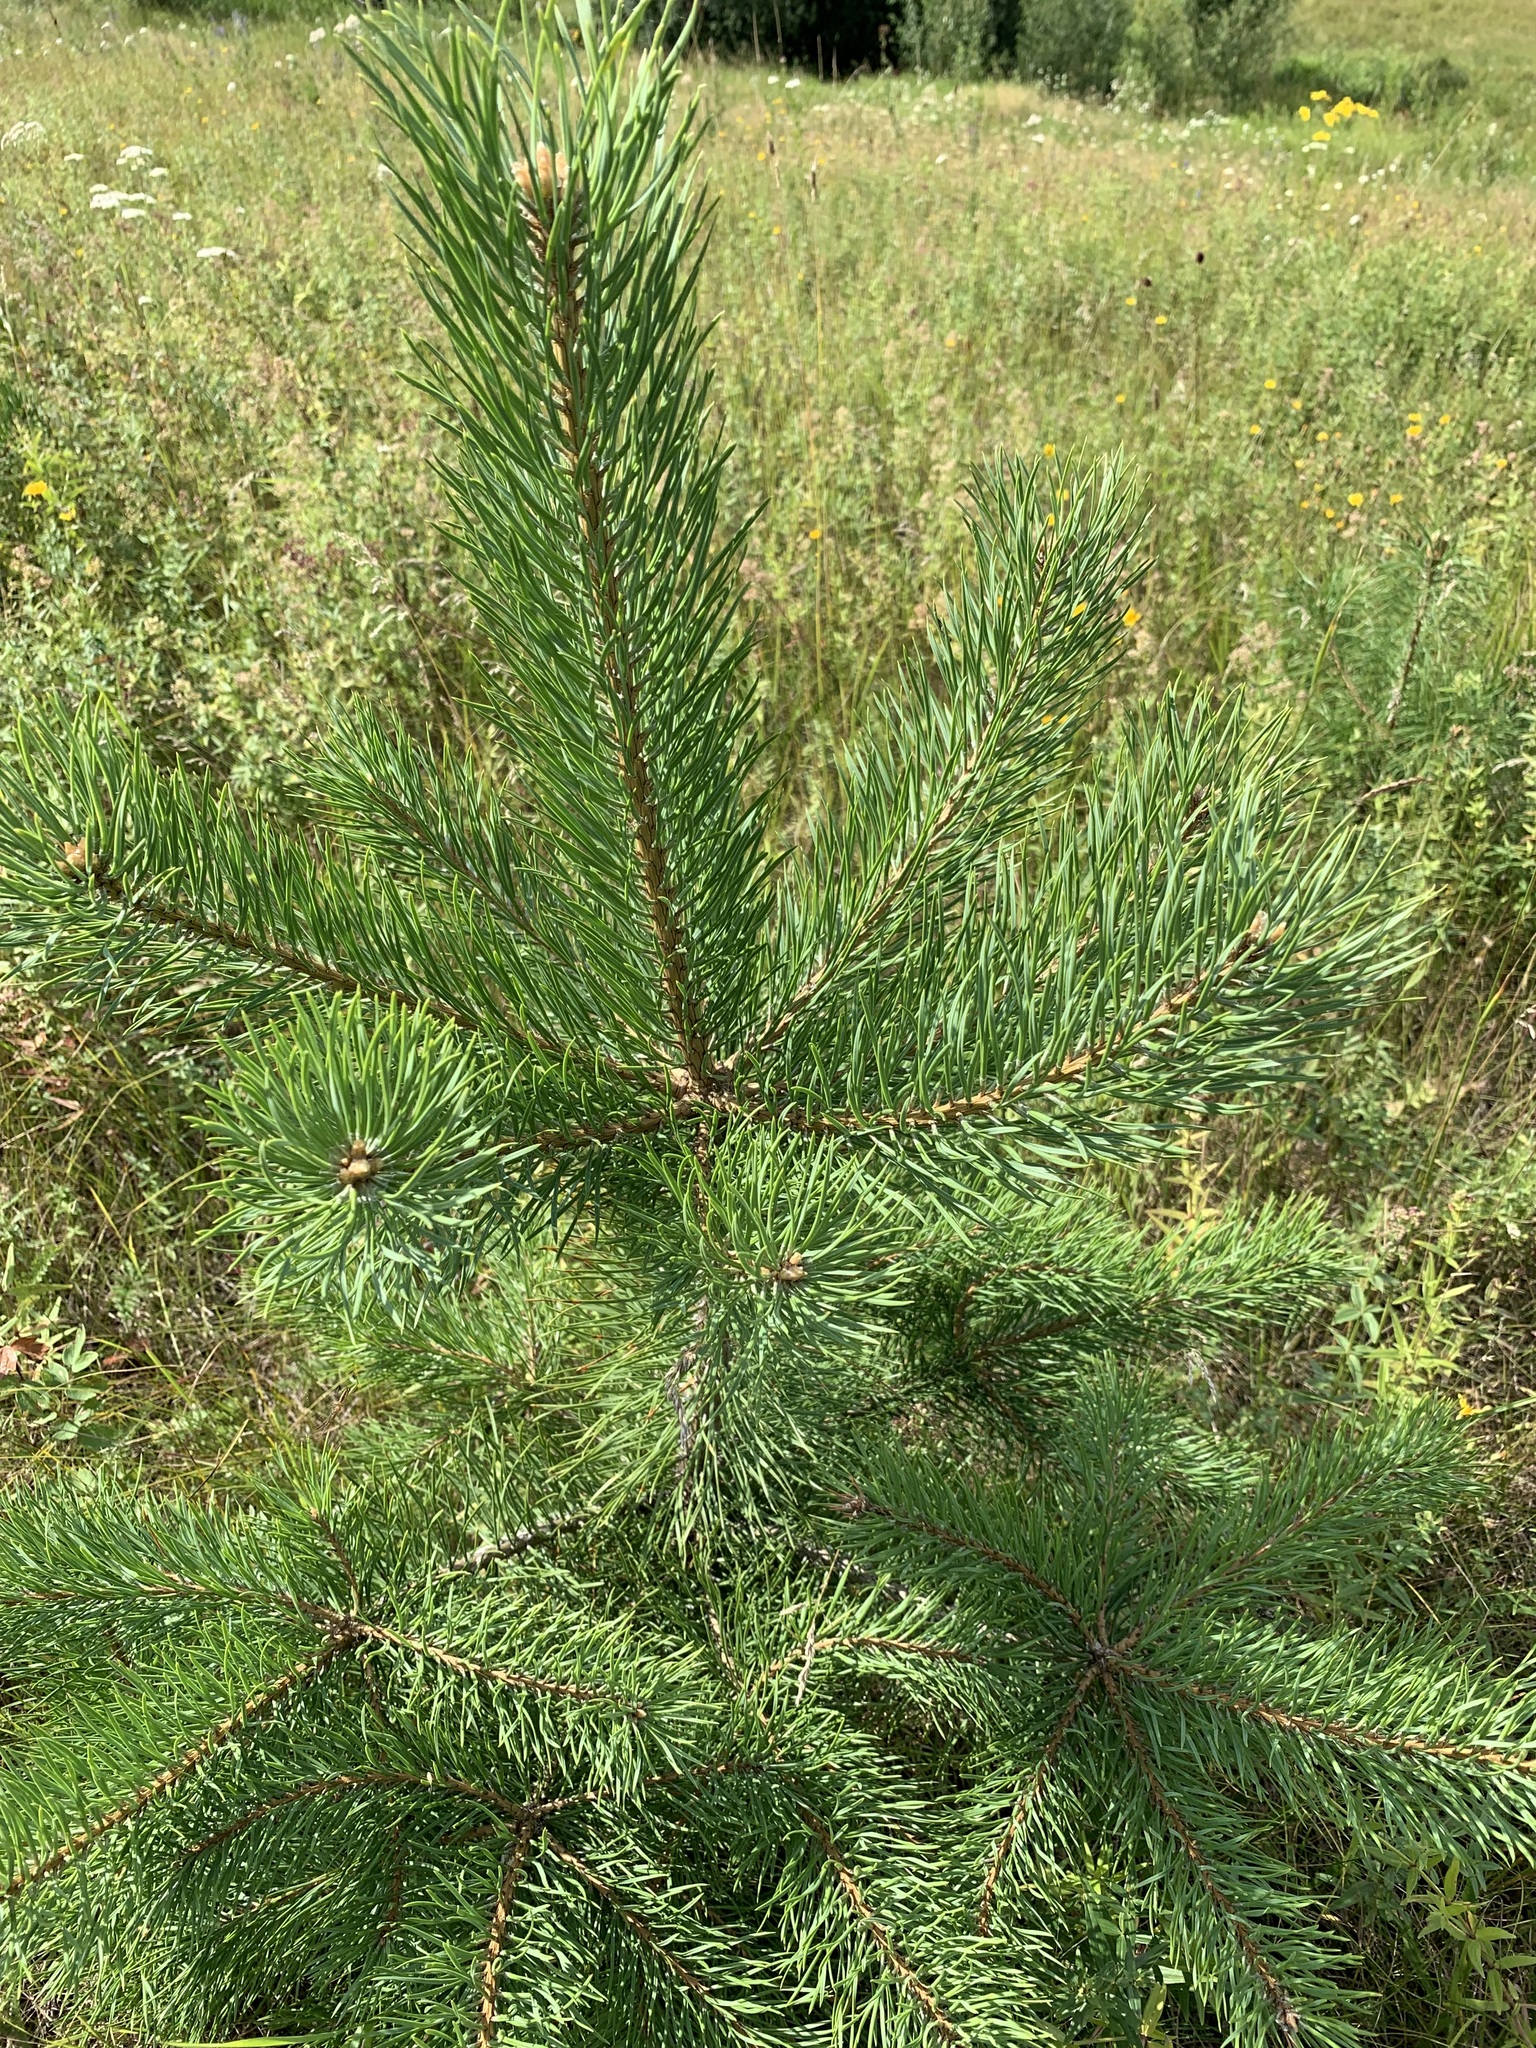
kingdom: Plantae
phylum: Tracheophyta
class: Pinopsida
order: Pinales
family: Pinaceae
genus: Pinus
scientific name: Pinus sylvestris
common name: Scots pine
